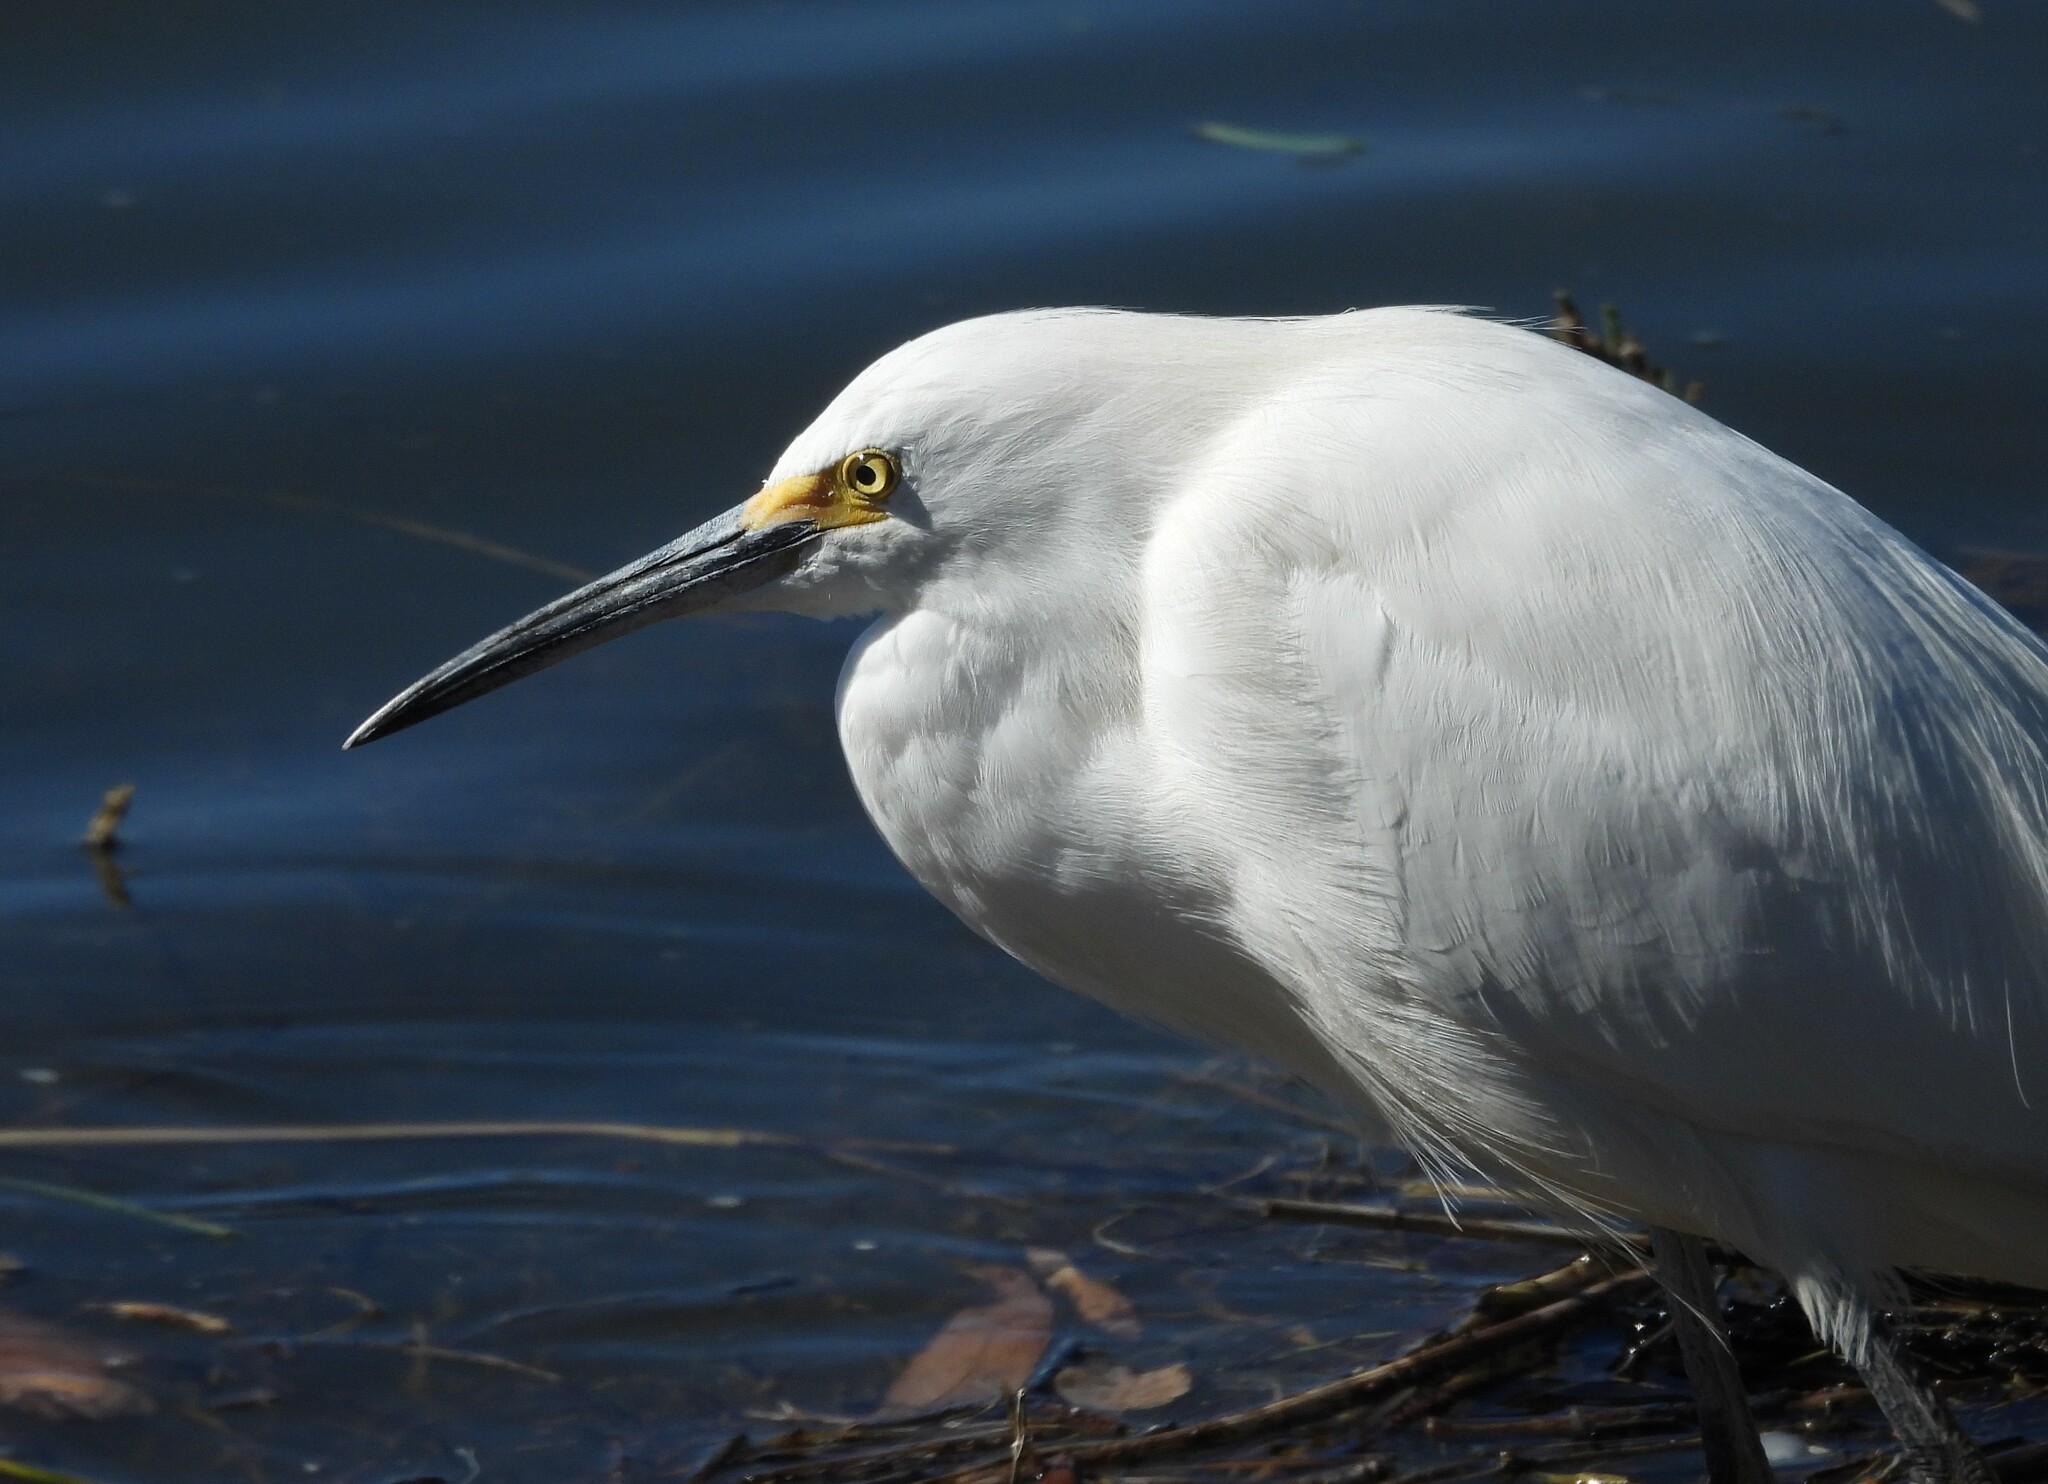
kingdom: Animalia
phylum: Chordata
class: Aves
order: Pelecaniformes
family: Ardeidae
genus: Egretta
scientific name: Egretta thula
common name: Snowy egret
